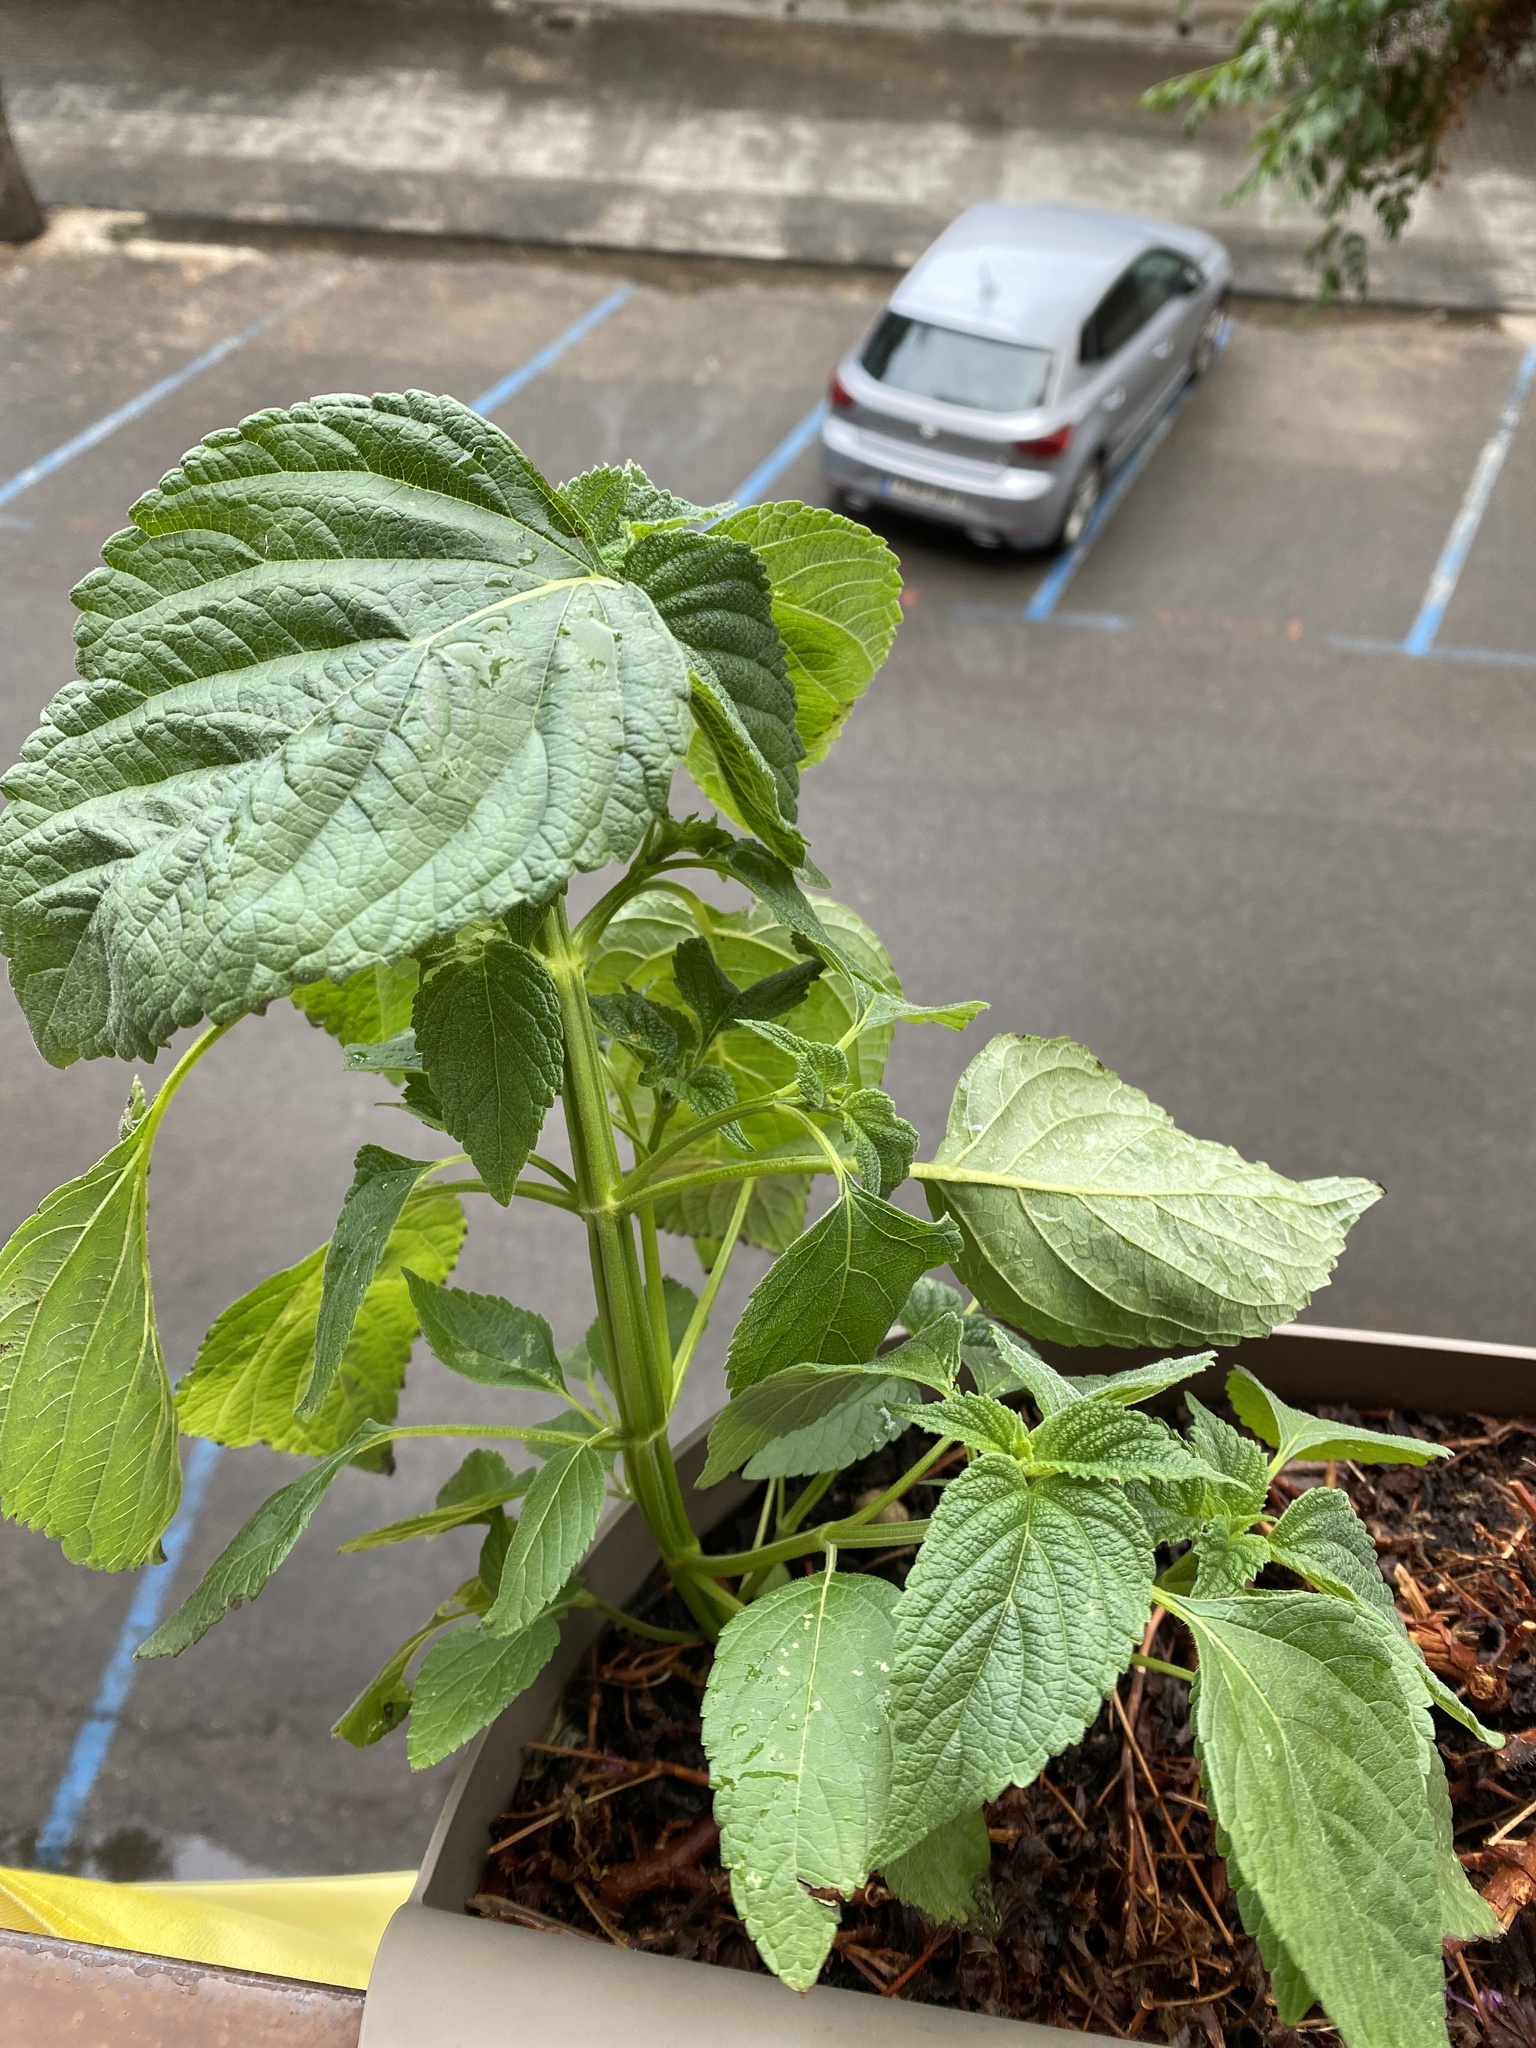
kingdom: Plantae
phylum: Tracheophyta
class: Magnoliopsida
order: Lamiales
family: Lamiaceae
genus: Salvia
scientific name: Salvia hispanica
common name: Chia
